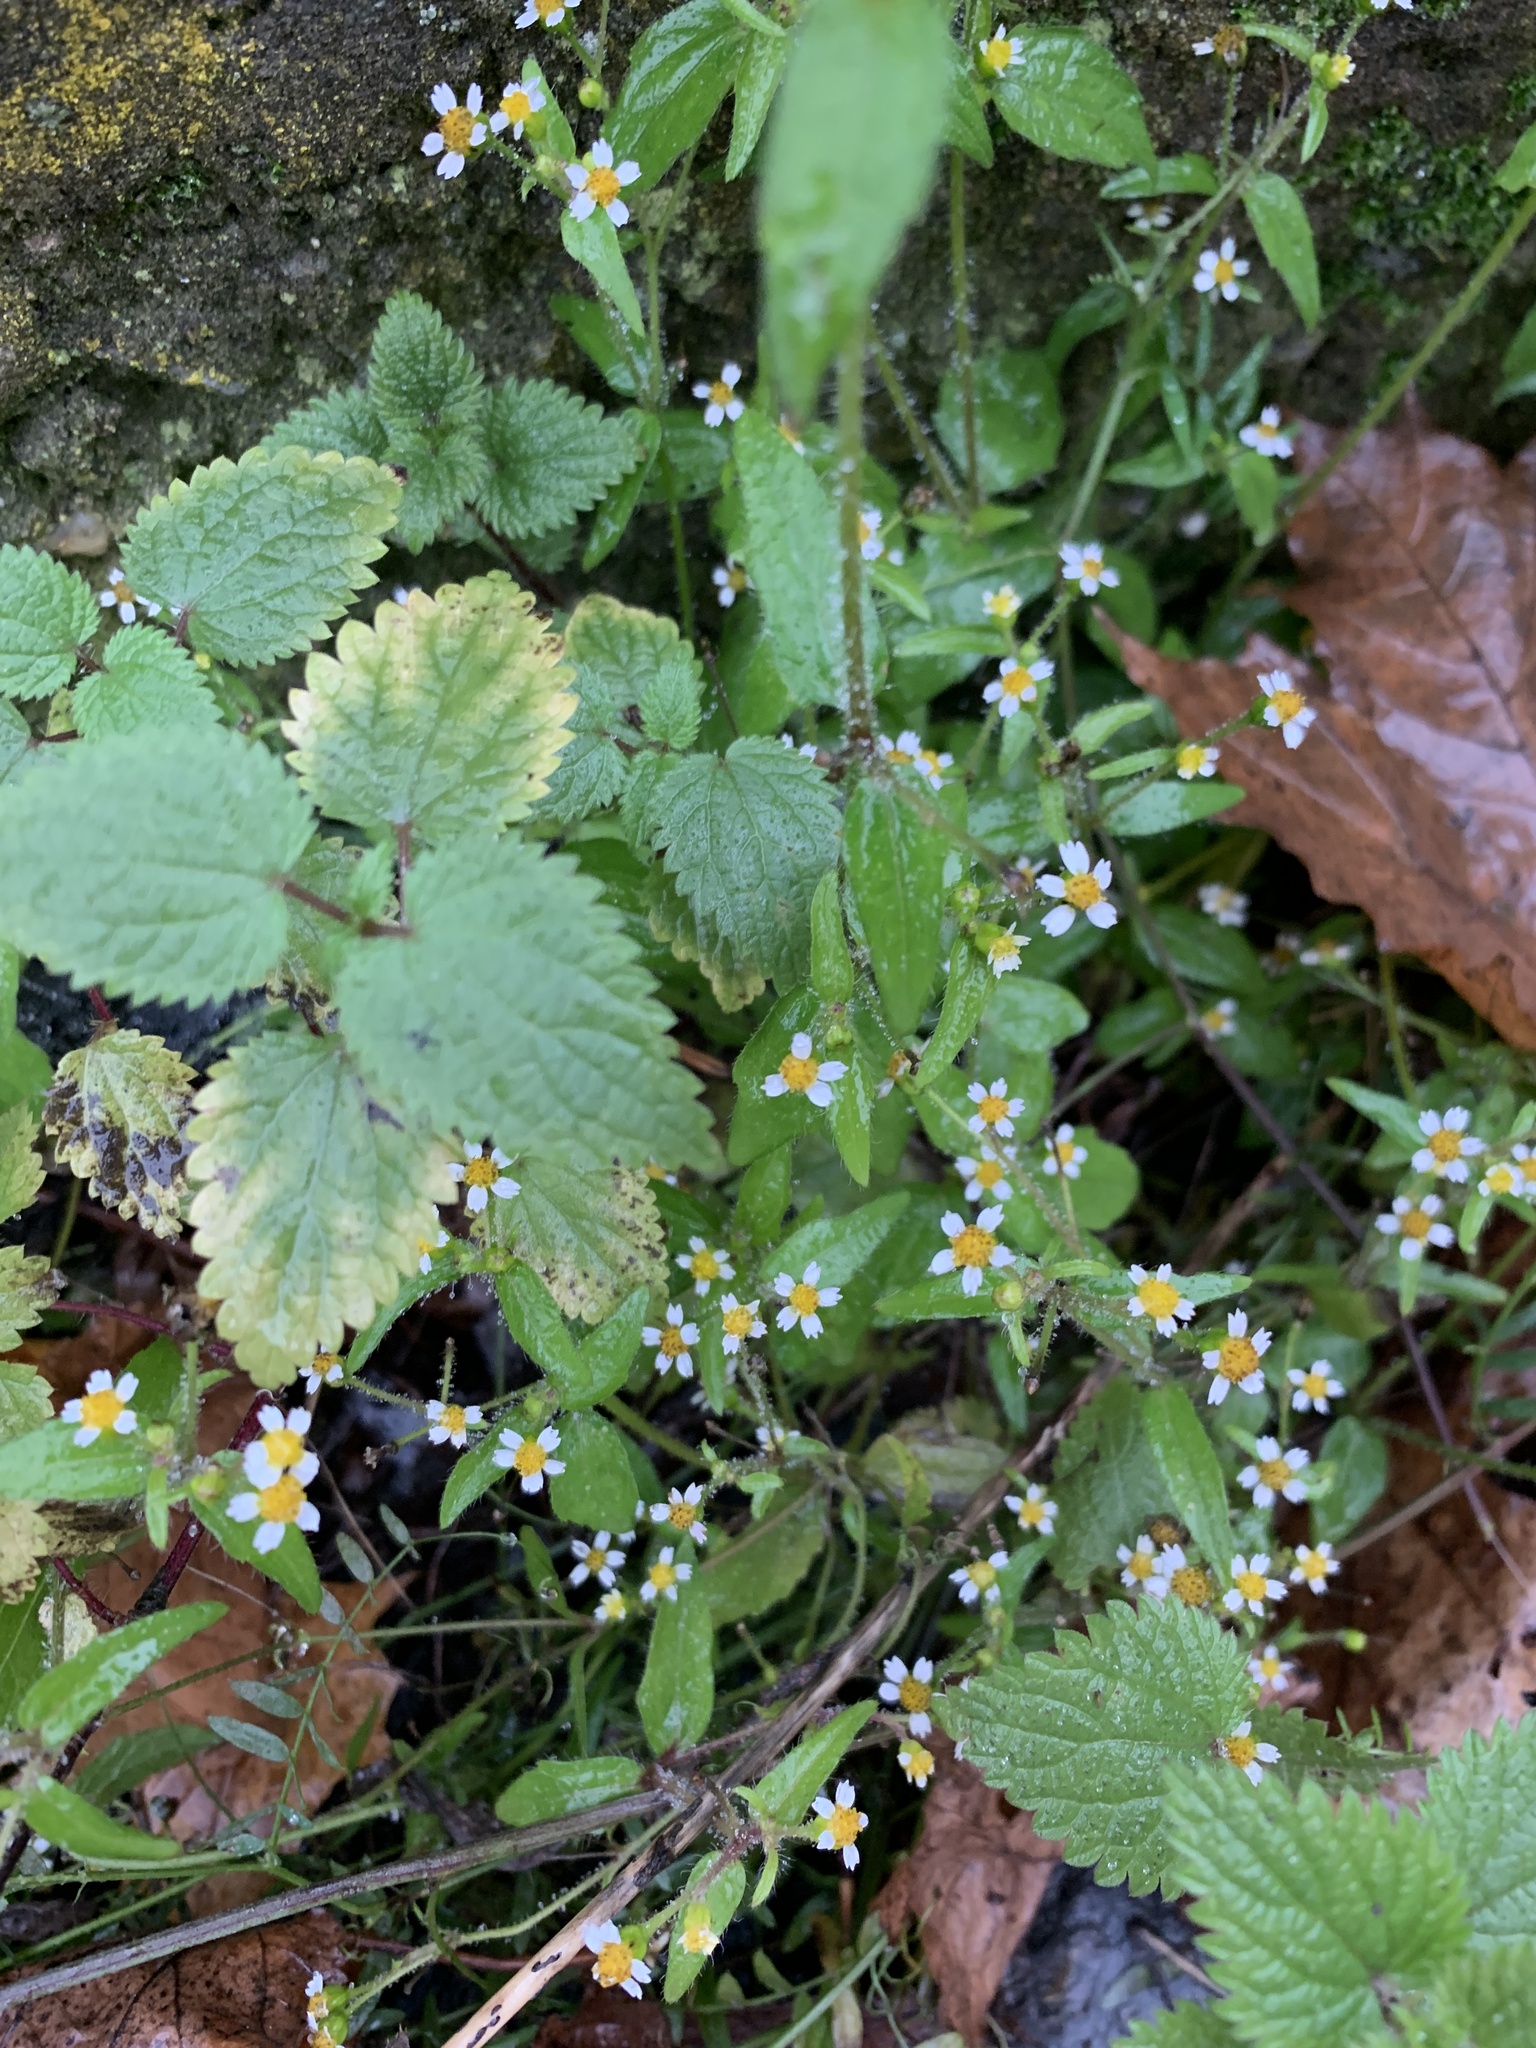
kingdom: Plantae
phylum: Tracheophyta
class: Magnoliopsida
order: Asterales
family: Asteraceae
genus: Galinsoga
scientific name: Galinsoga quadriradiata
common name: Shaggy soldier
